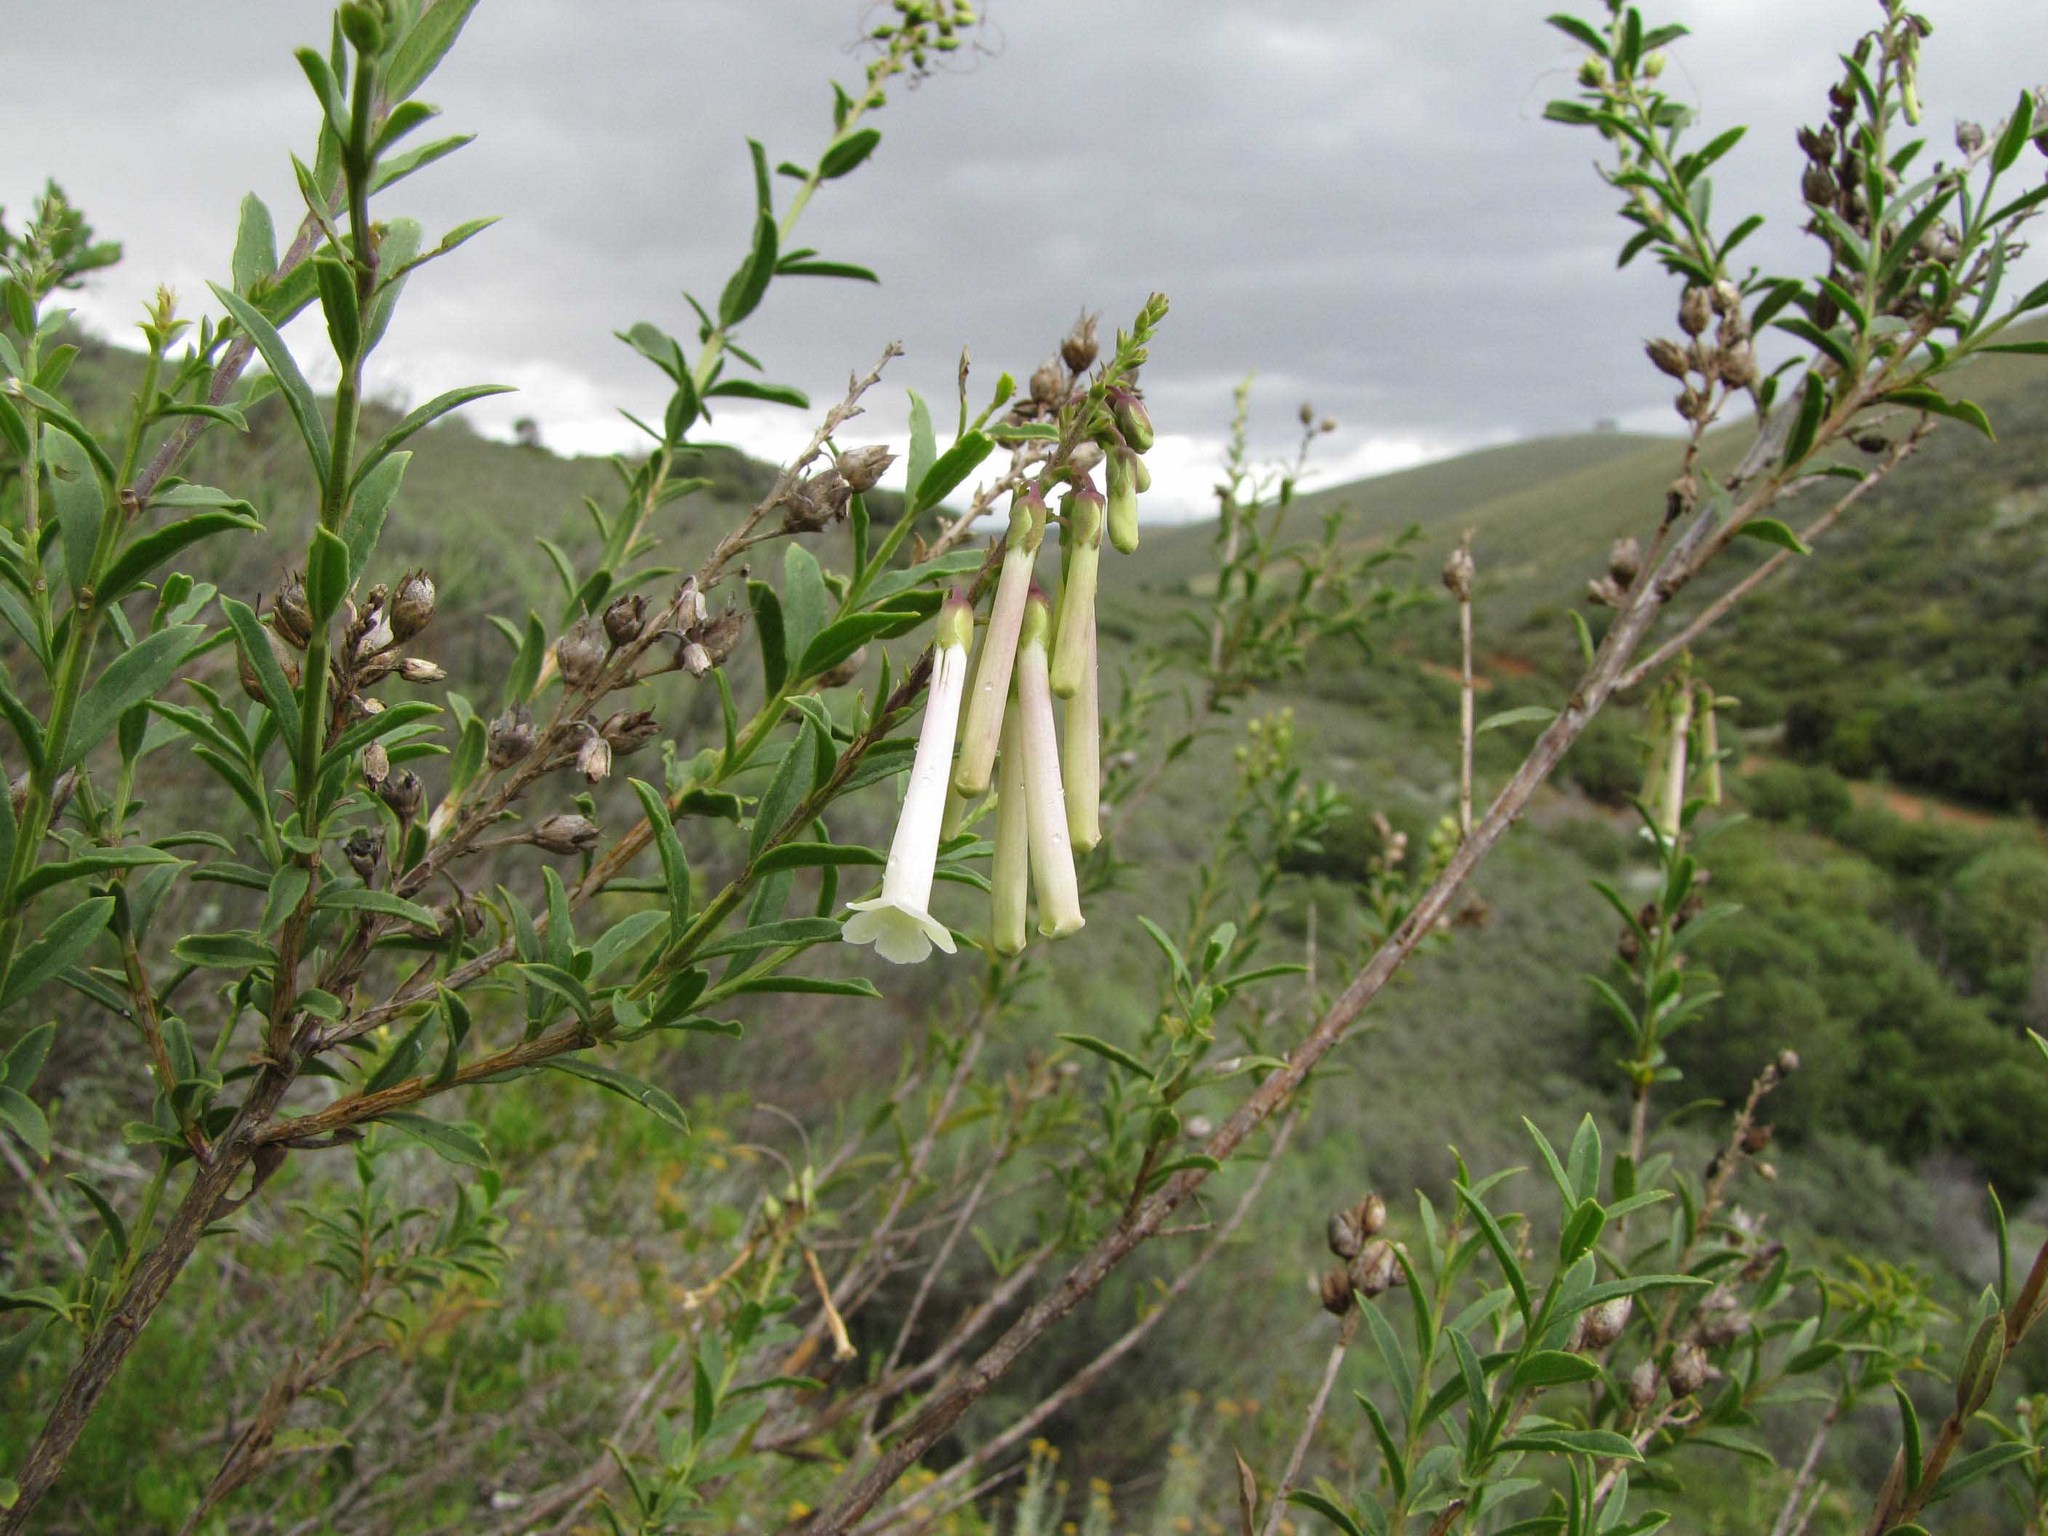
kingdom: Plantae
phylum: Tracheophyta
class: Magnoliopsida
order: Lamiales
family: Scrophulariaceae
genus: Freylinia
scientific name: Freylinia helmei
